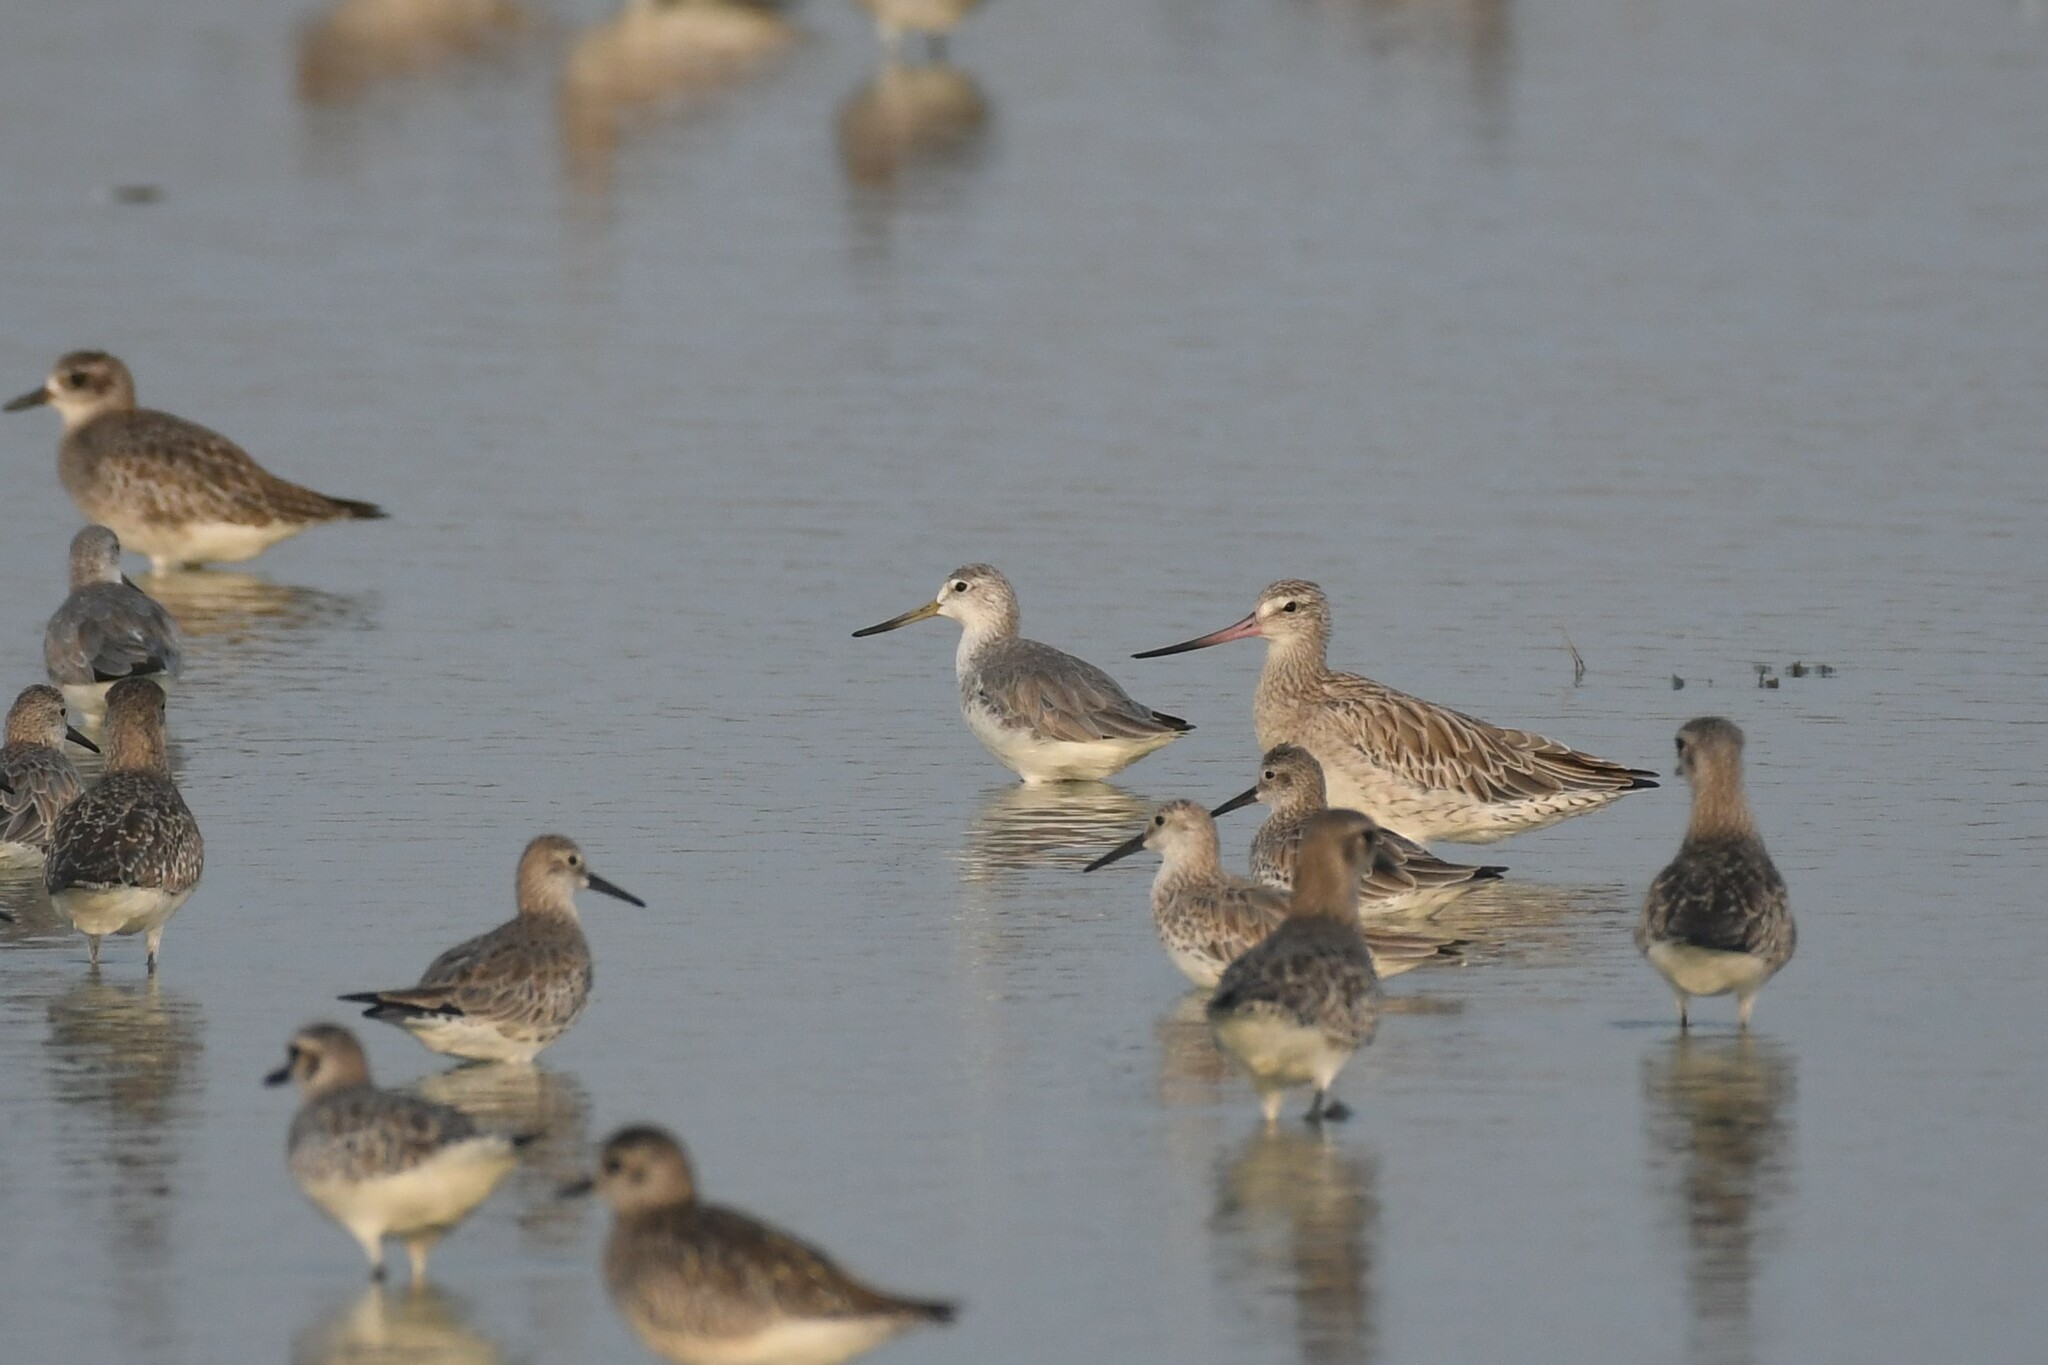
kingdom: Animalia
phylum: Chordata
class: Aves
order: Charadriiformes
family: Scolopacidae
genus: Tringa
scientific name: Tringa guttifer
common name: Nordmann's greenshank
